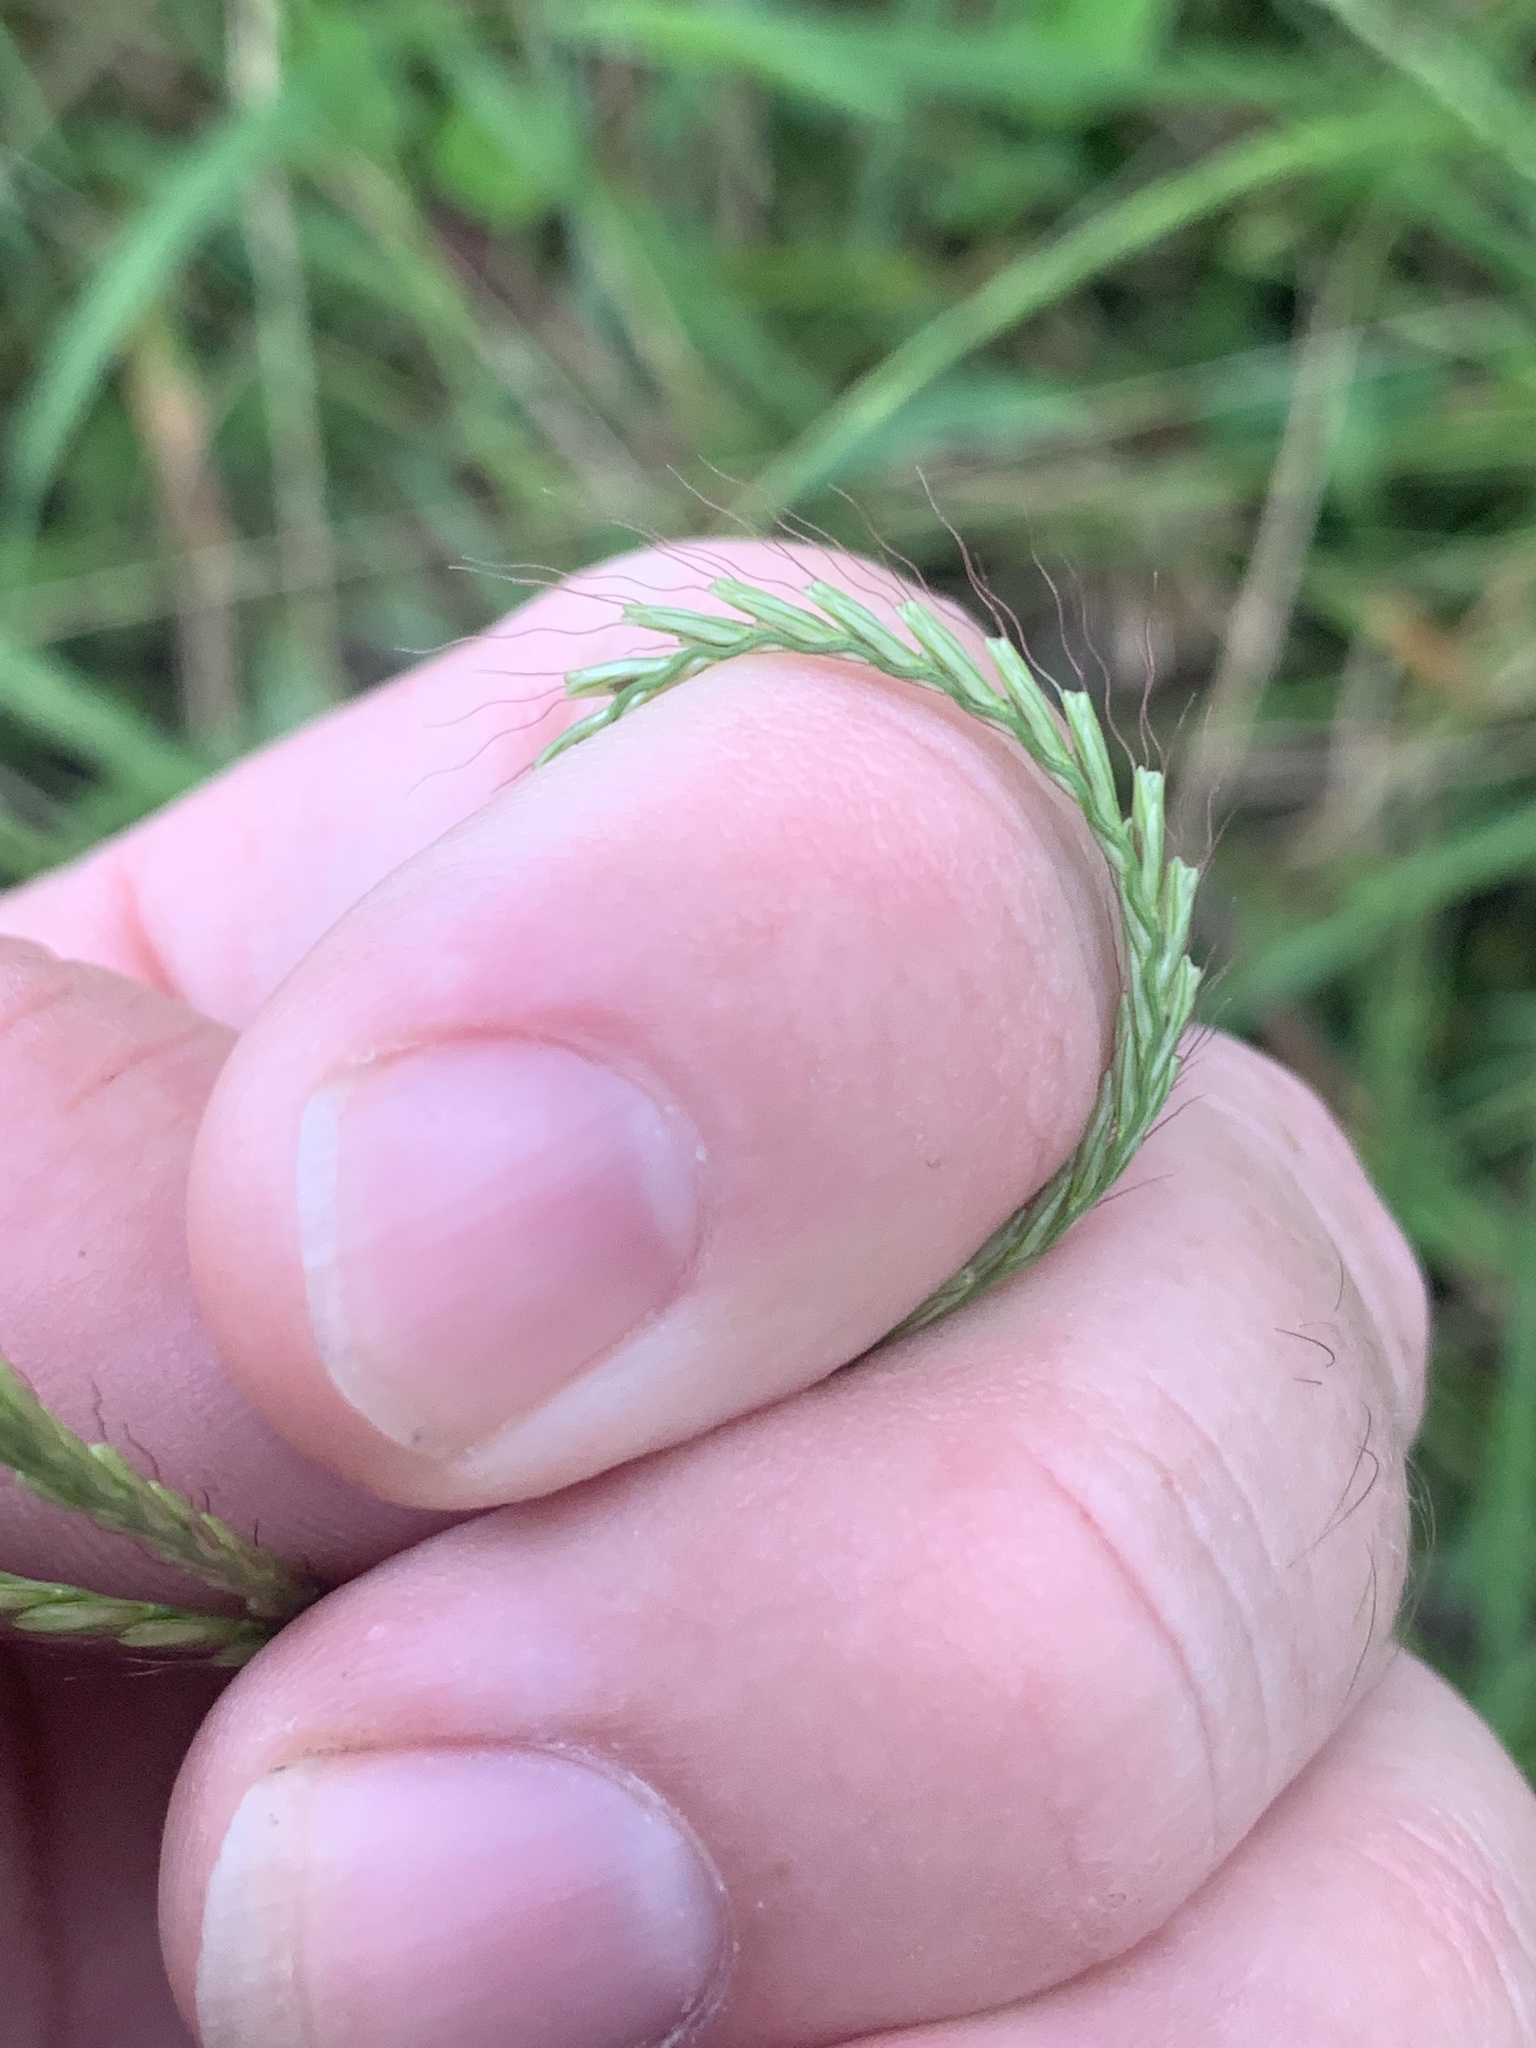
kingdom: Plantae
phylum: Tracheophyta
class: Liliopsida
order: Poales
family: Poaceae
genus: Chloris
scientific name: Chloris ventricosa
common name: Australian windmill grass
